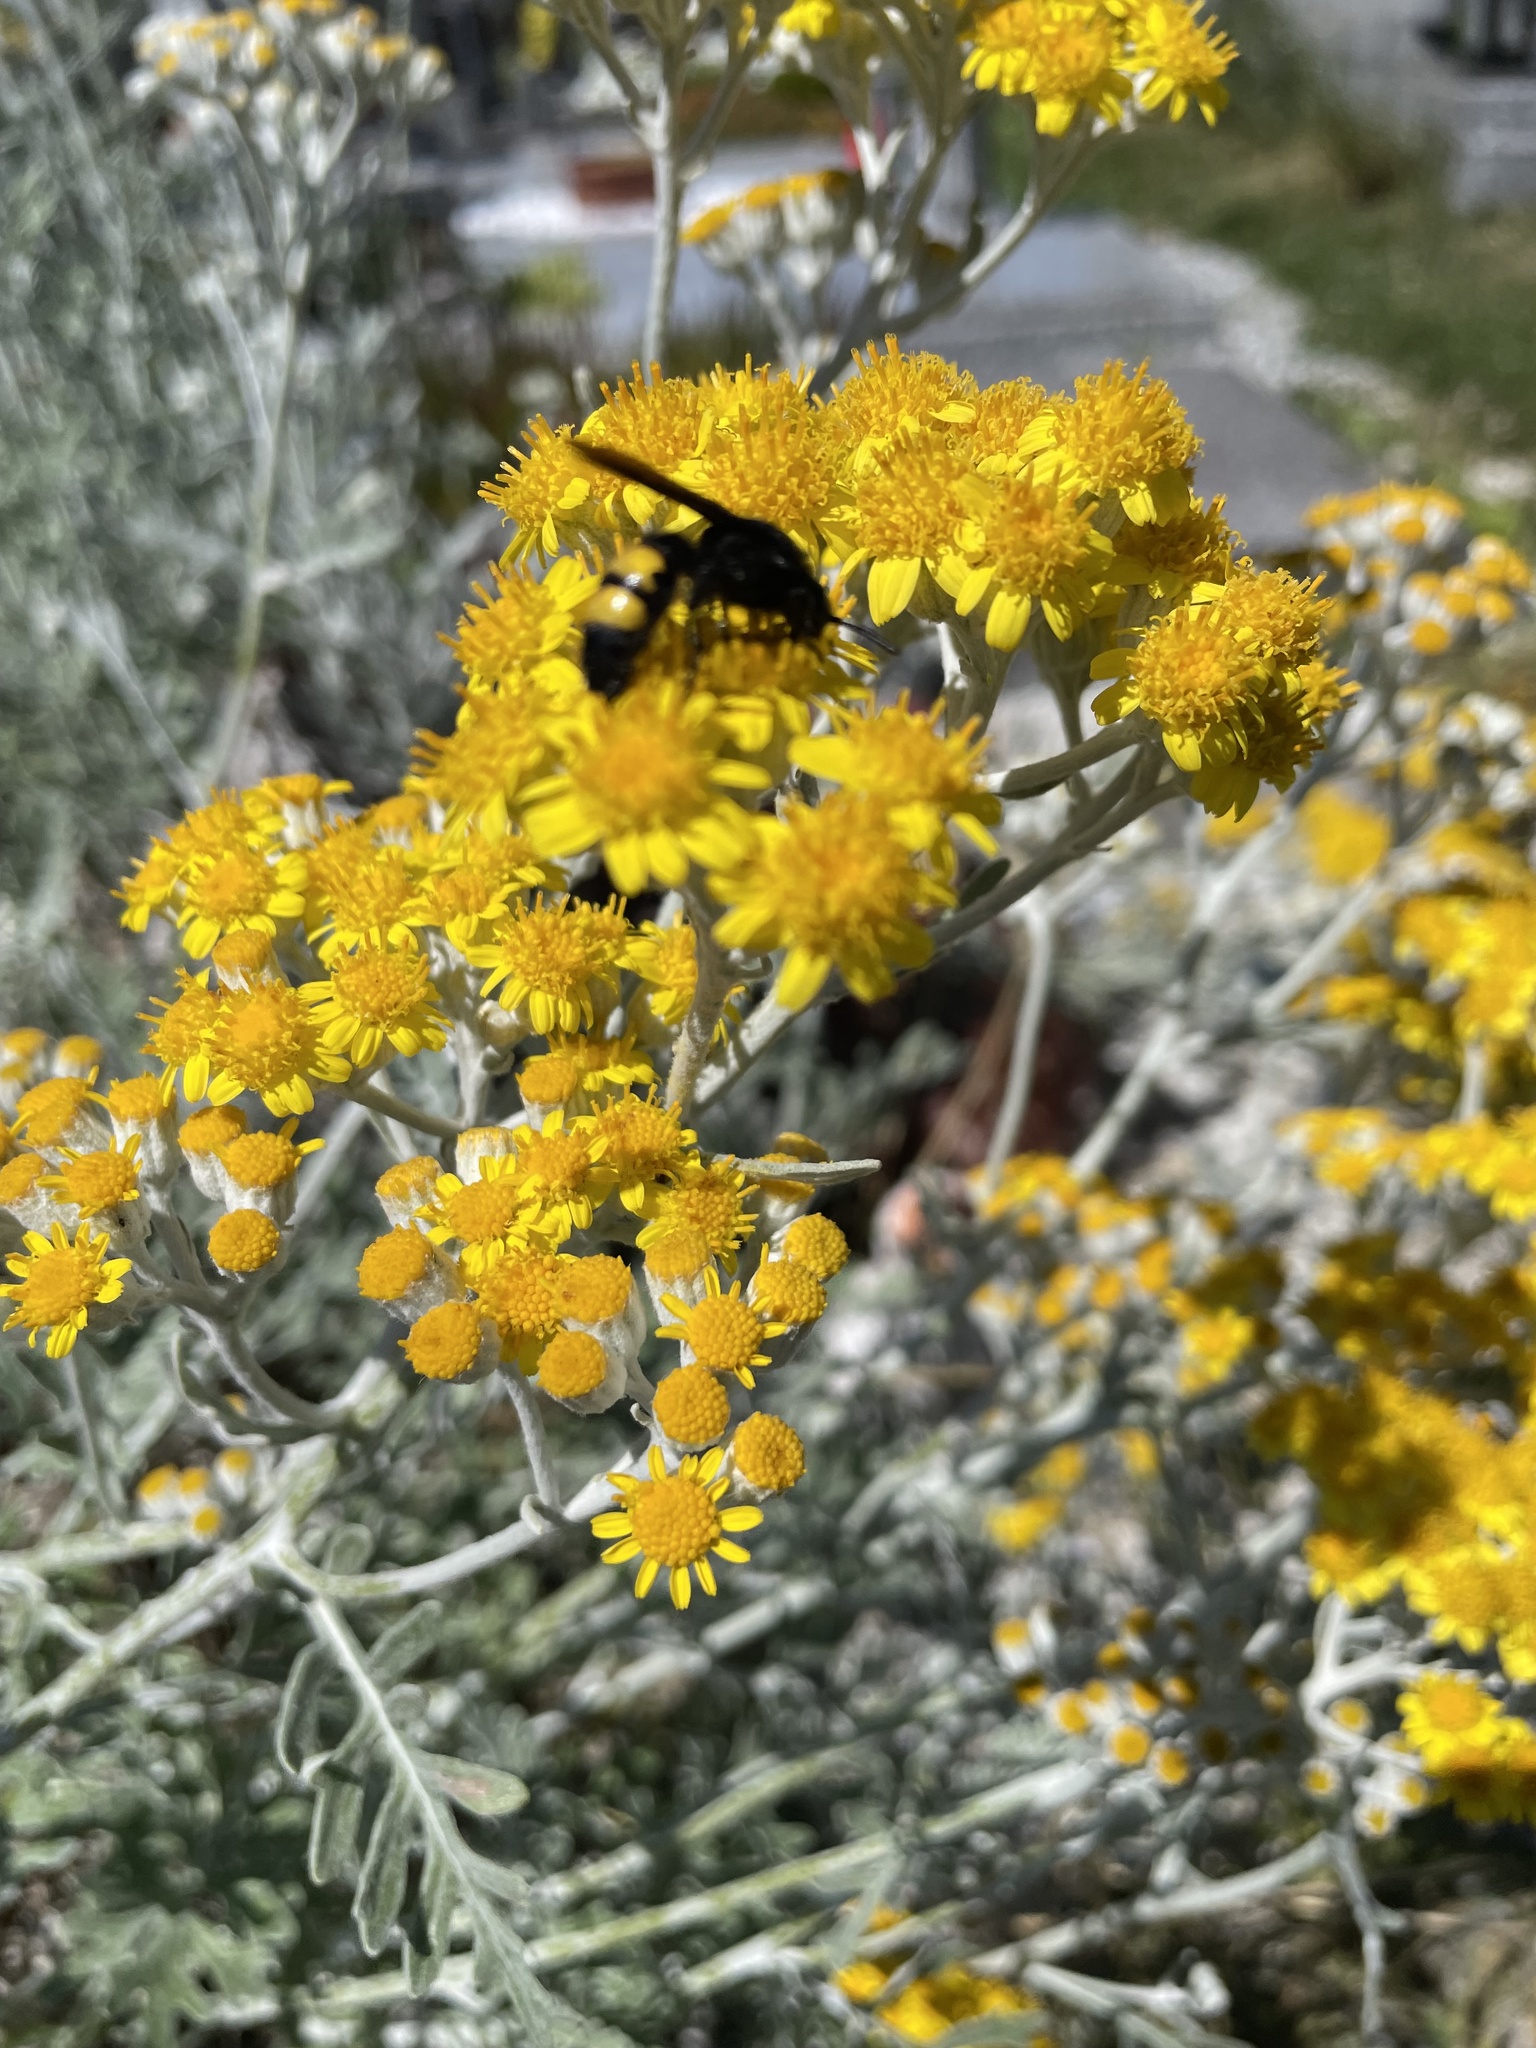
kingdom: Animalia
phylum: Arthropoda
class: Insecta
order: Hymenoptera
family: Scoliidae
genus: Scolia
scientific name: Scolia hirta
